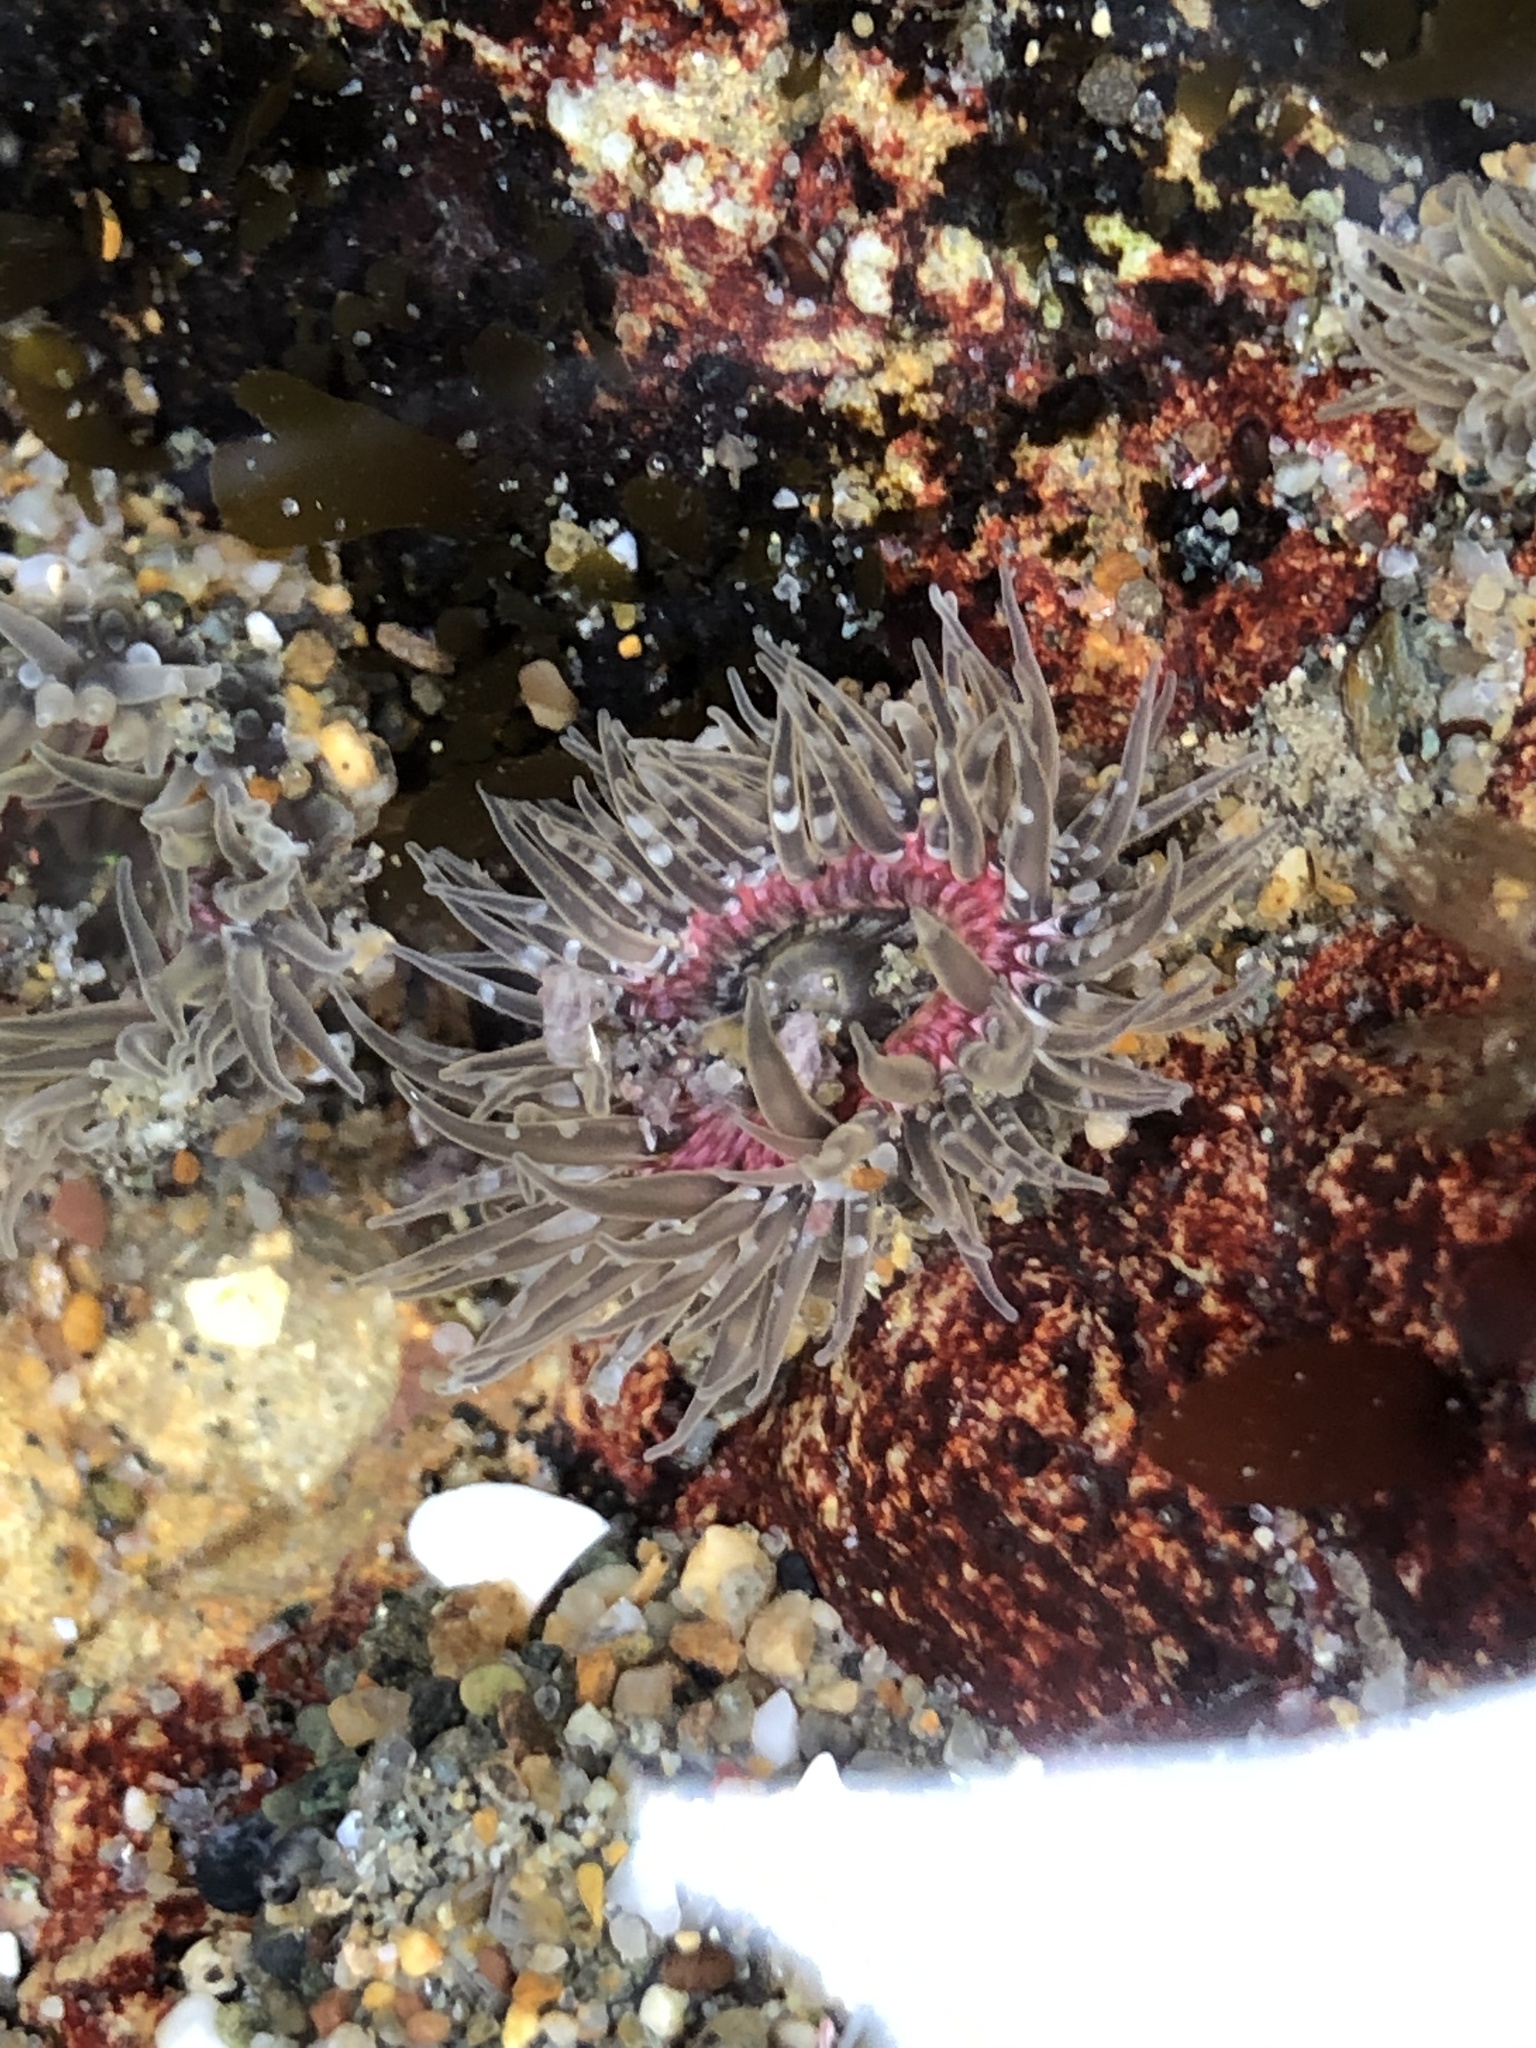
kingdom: Animalia
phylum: Cnidaria
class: Anthozoa
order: Actiniaria
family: Actiniidae
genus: Anthopleura
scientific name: Anthopleura artemisia
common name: Buried sea anemone
